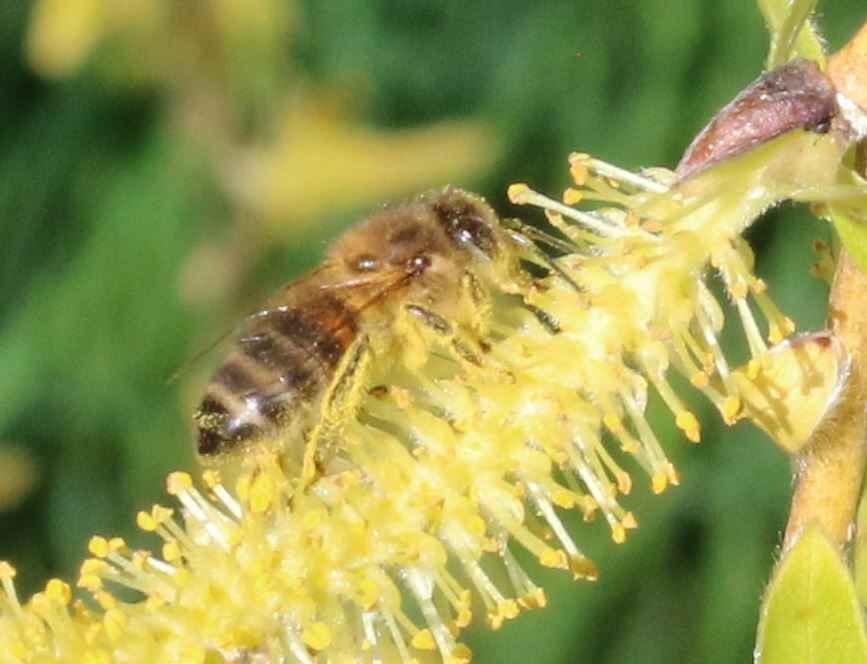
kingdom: Animalia
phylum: Arthropoda
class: Insecta
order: Hymenoptera
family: Apidae
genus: Apis
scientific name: Apis mellifera
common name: Honey bee
